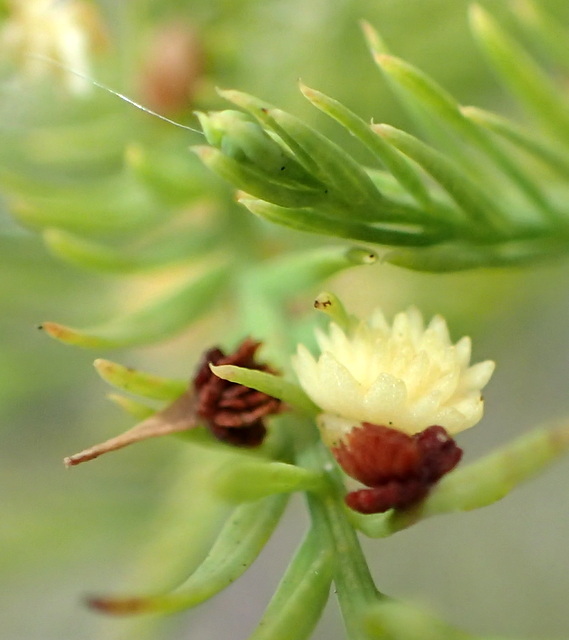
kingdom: Animalia
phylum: Arthropoda
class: Insecta
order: Diptera
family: Cecidomyiidae
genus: Taxodiomyia
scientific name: Taxodiomyia
